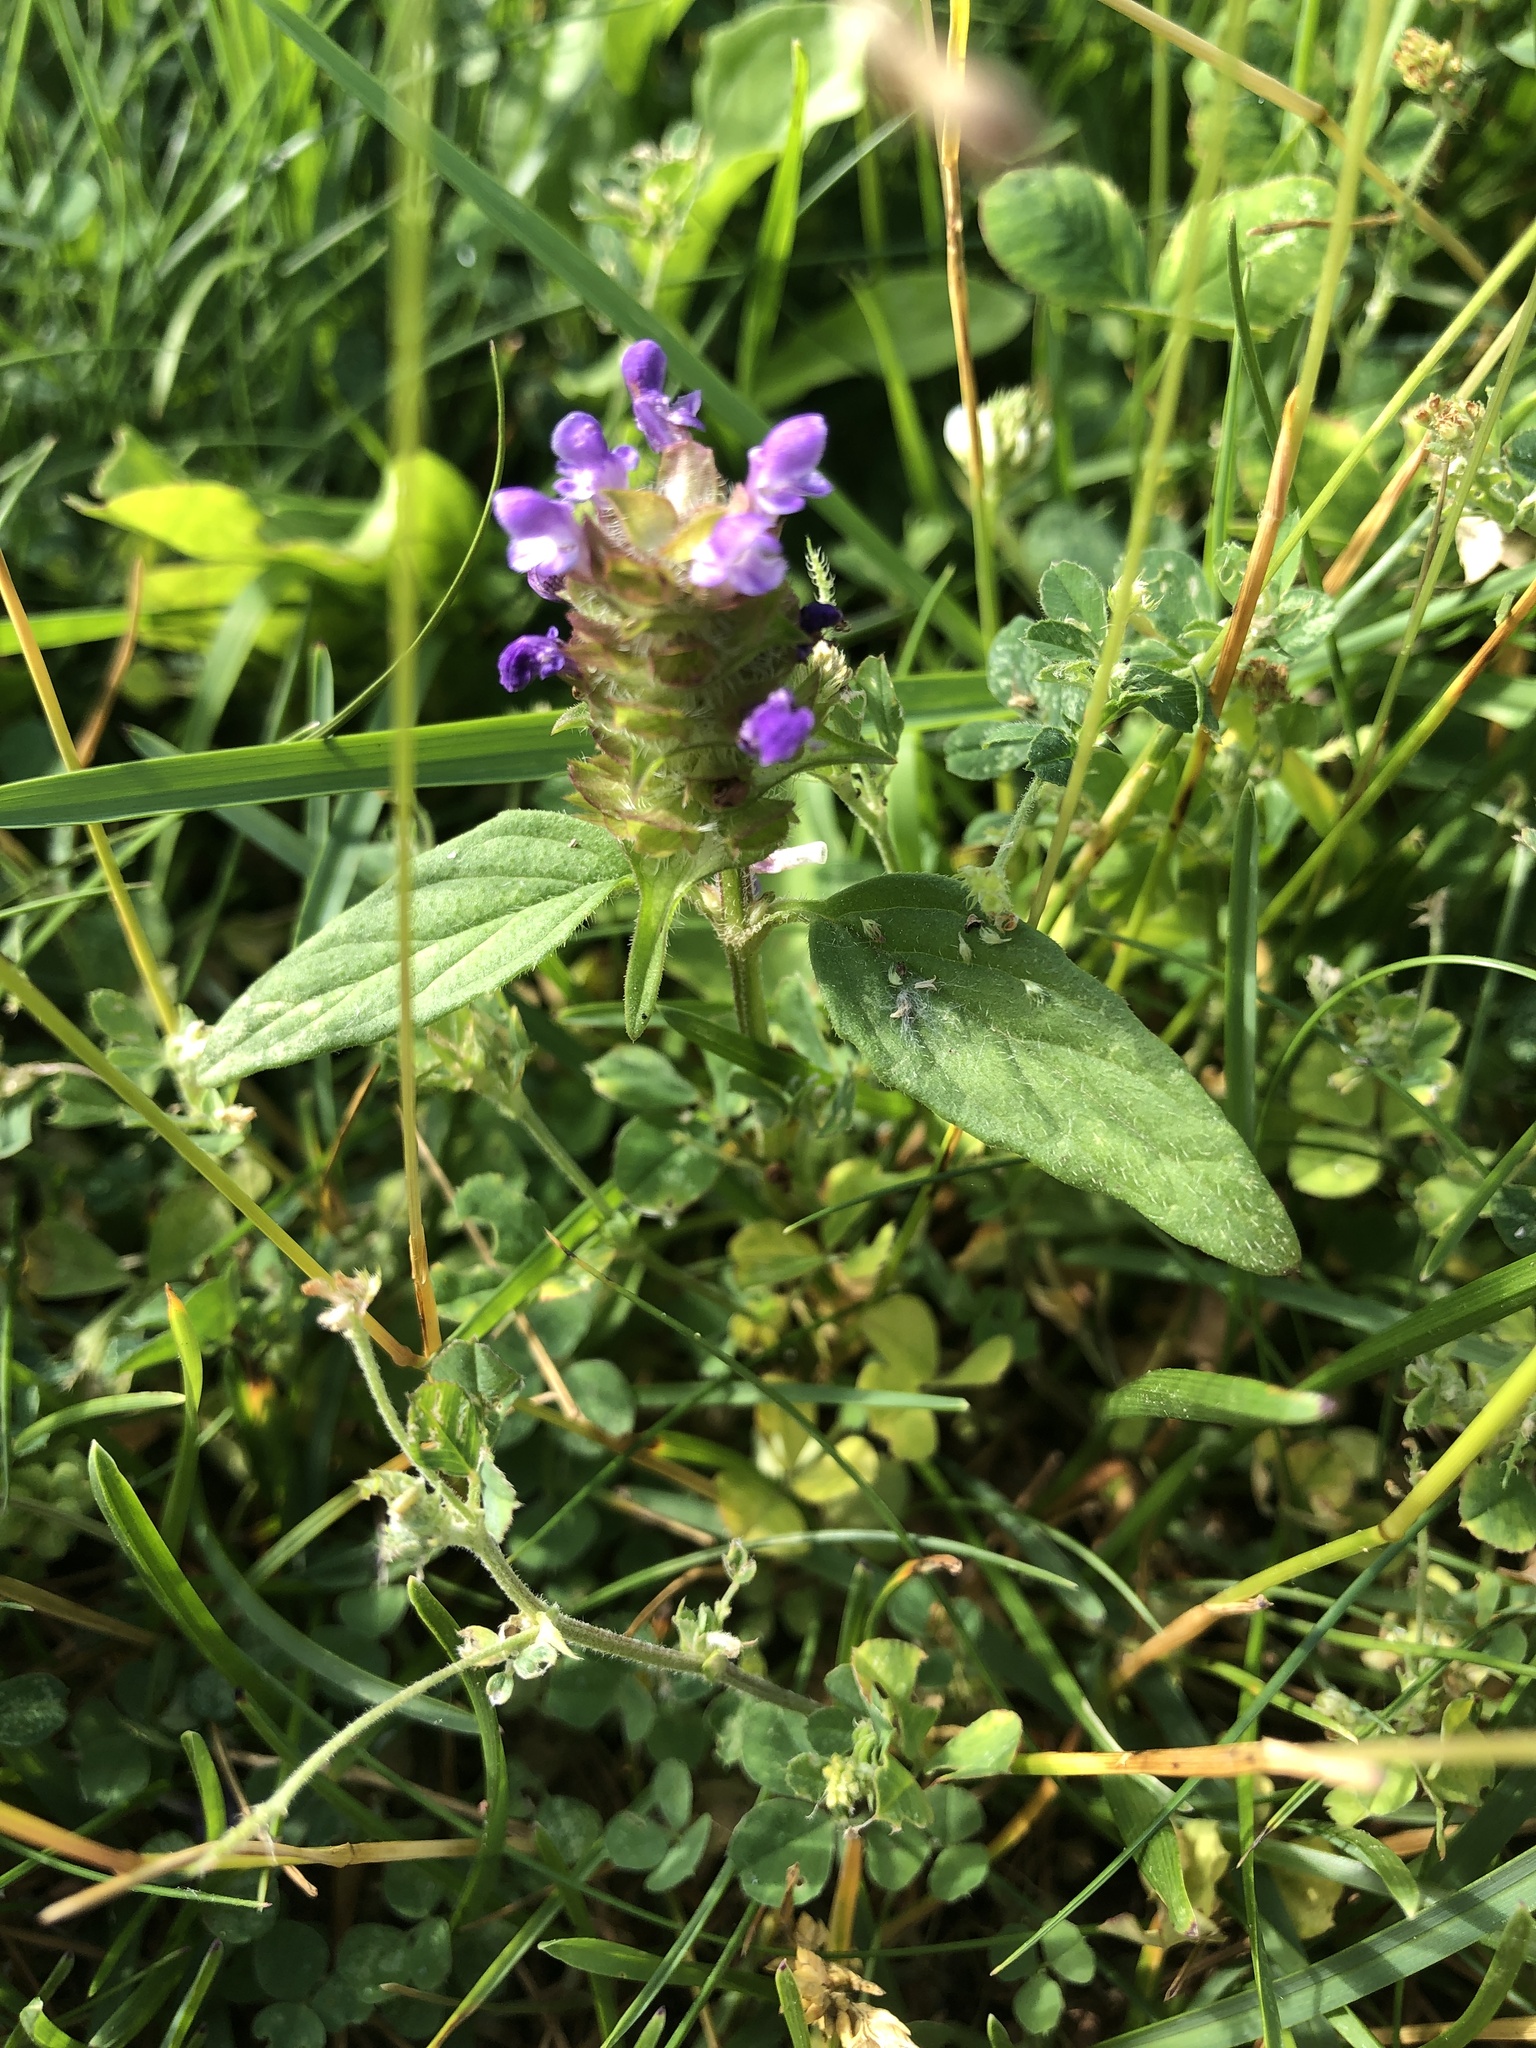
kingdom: Plantae
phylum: Tracheophyta
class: Magnoliopsida
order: Lamiales
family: Lamiaceae
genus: Prunella
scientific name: Prunella vulgaris
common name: Heal-all
